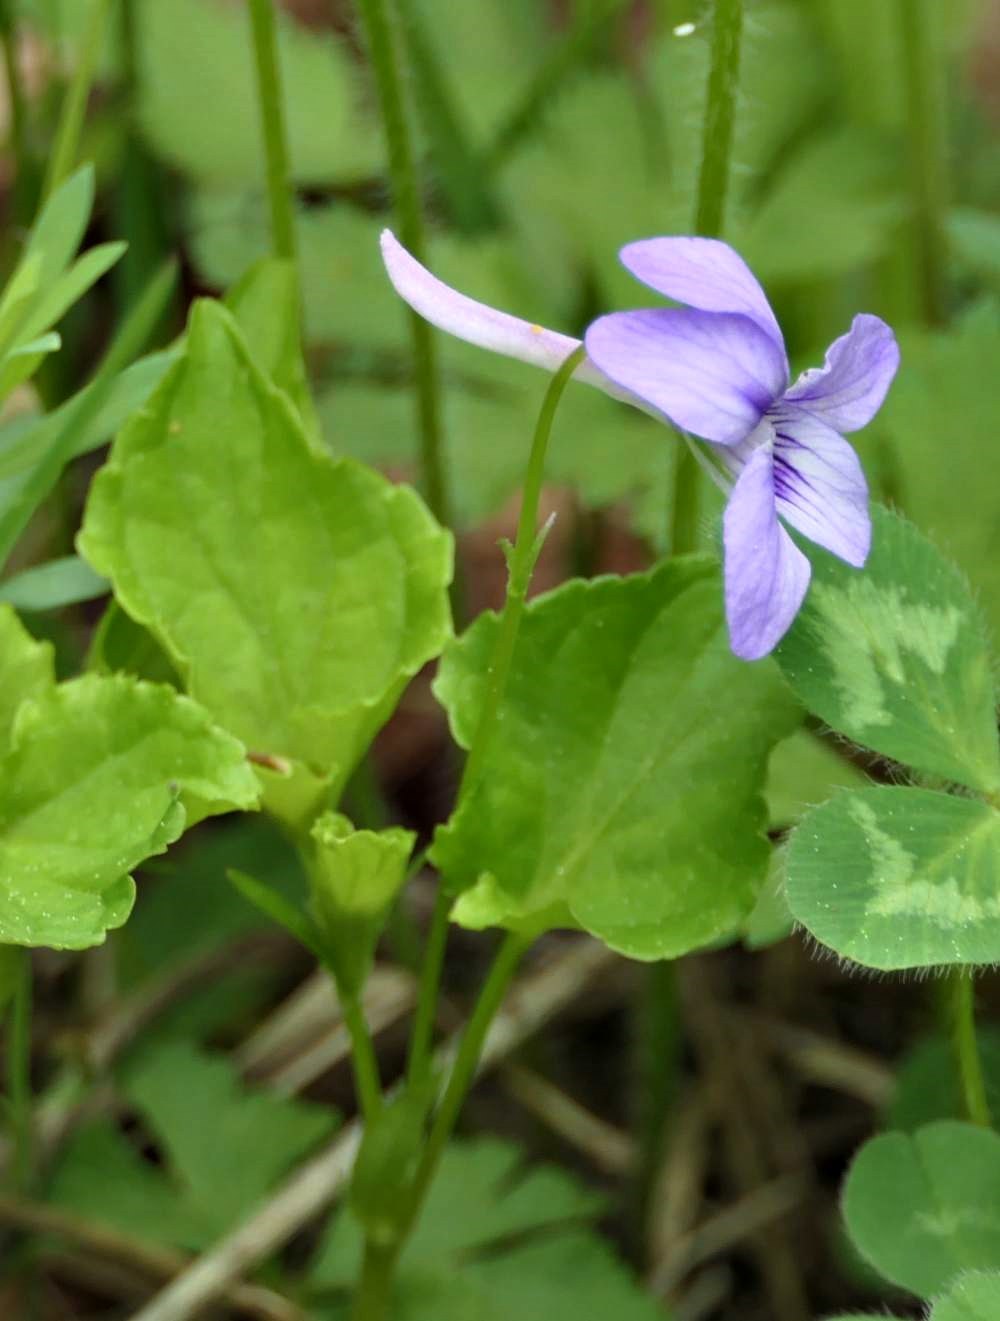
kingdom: Plantae
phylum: Tracheophyta
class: Magnoliopsida
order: Malpighiales
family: Violaceae
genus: Viola
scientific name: Viola rostrata
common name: Long-spur violet
